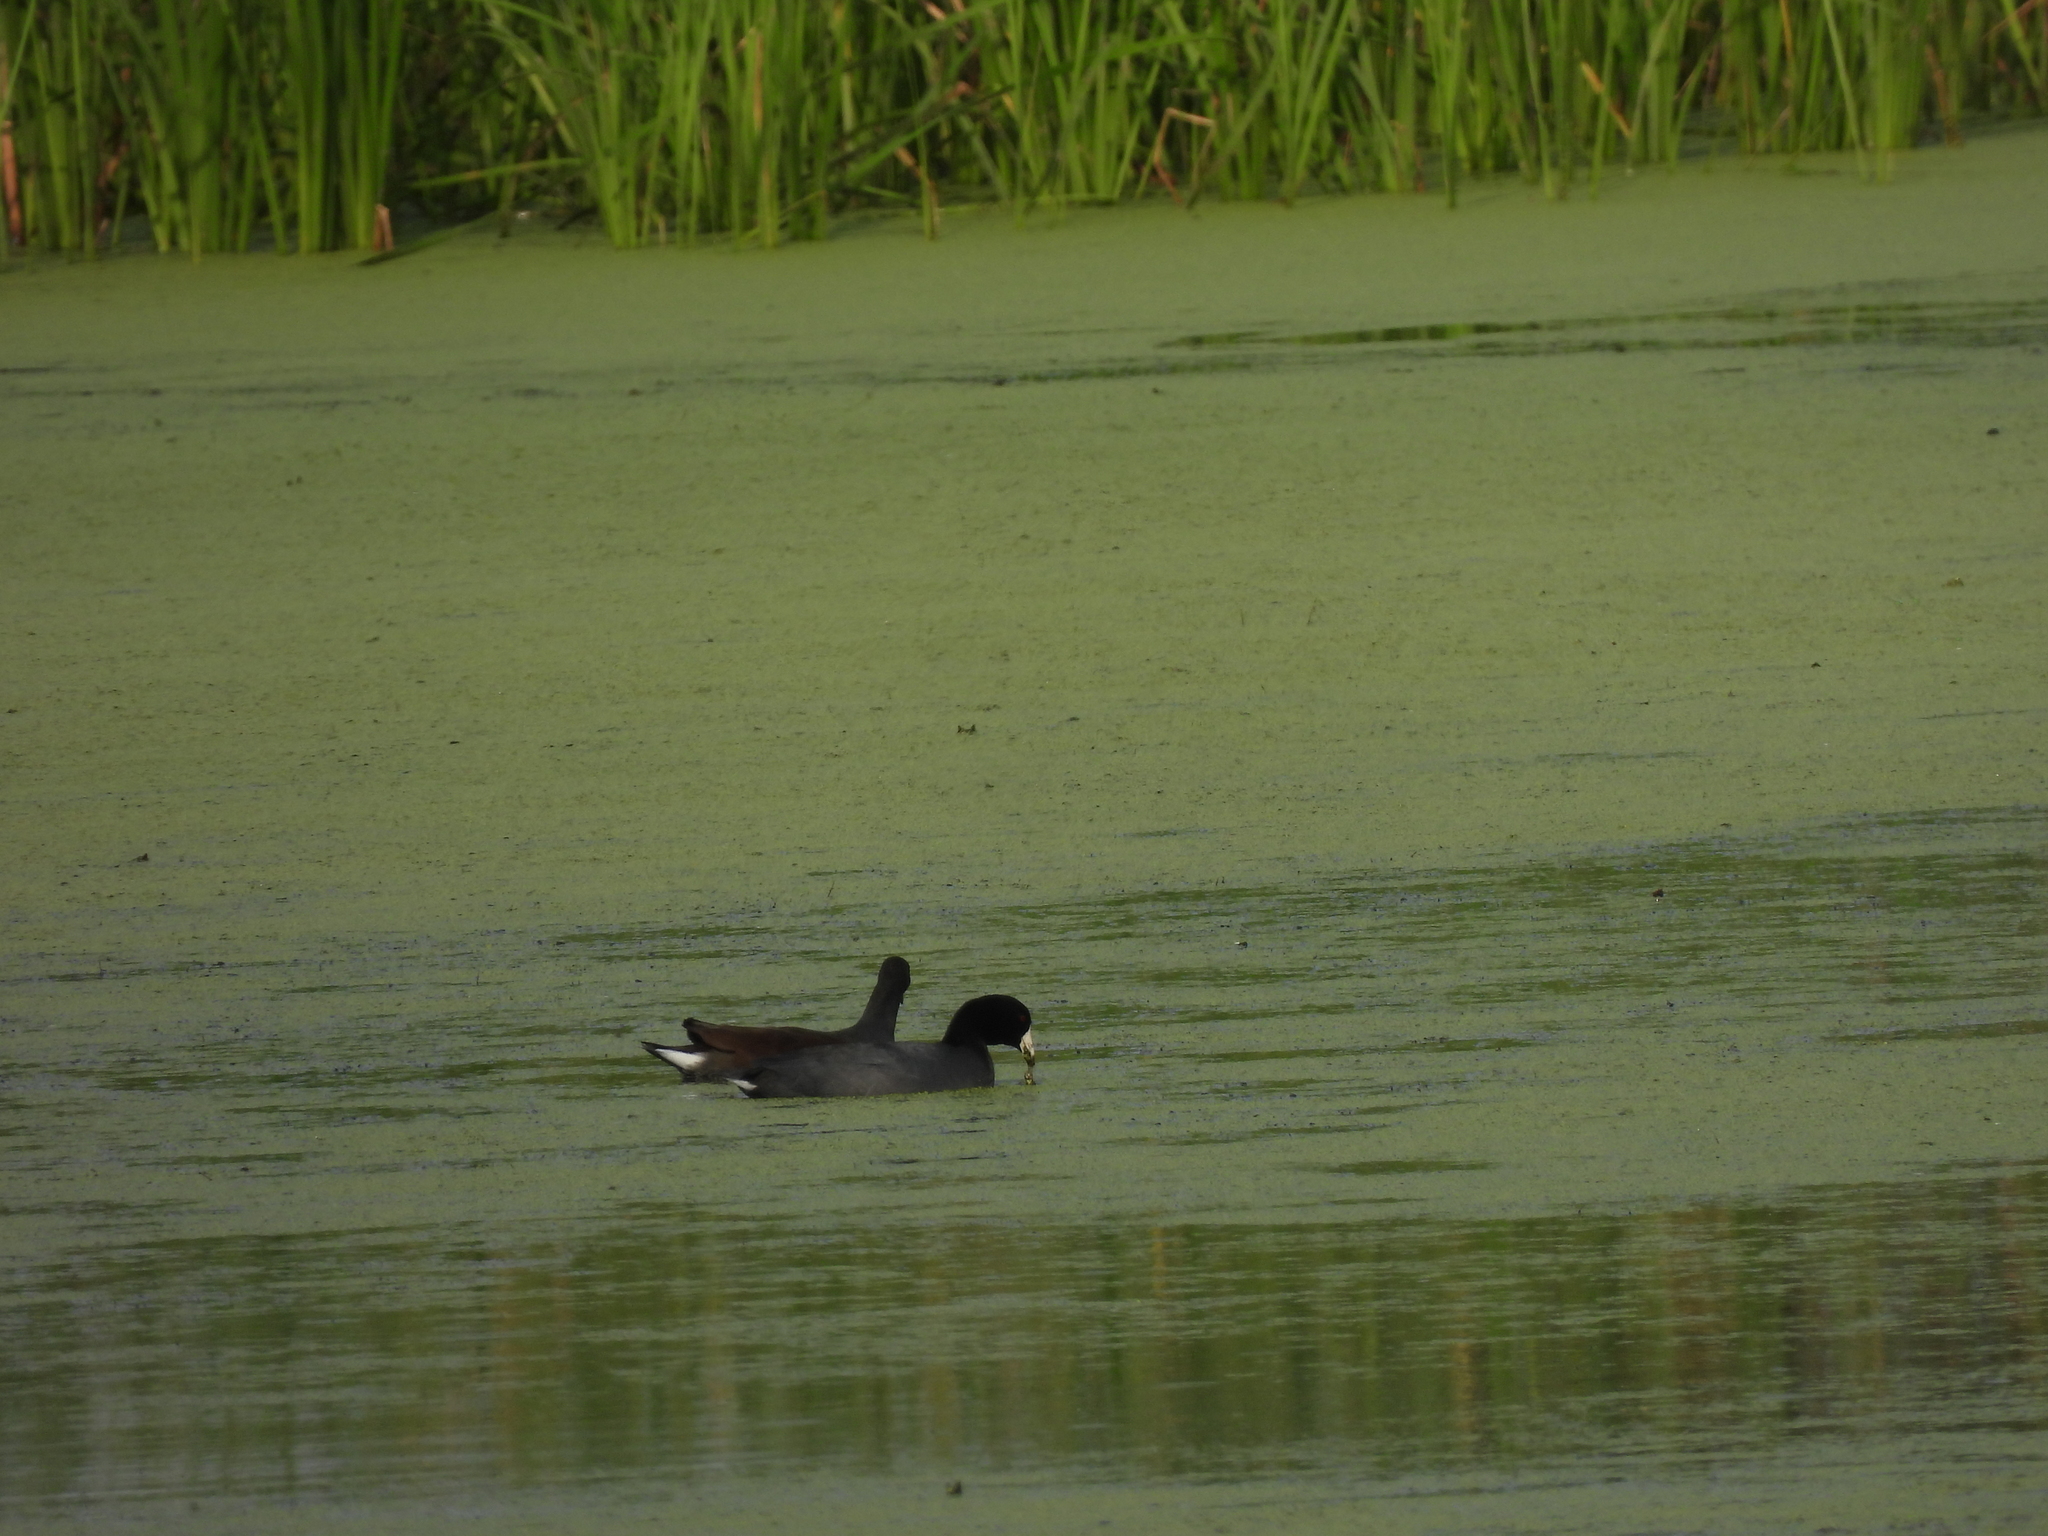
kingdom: Animalia
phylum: Chordata
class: Aves
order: Gruiformes
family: Rallidae
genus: Fulica
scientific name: Fulica americana
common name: American coot
